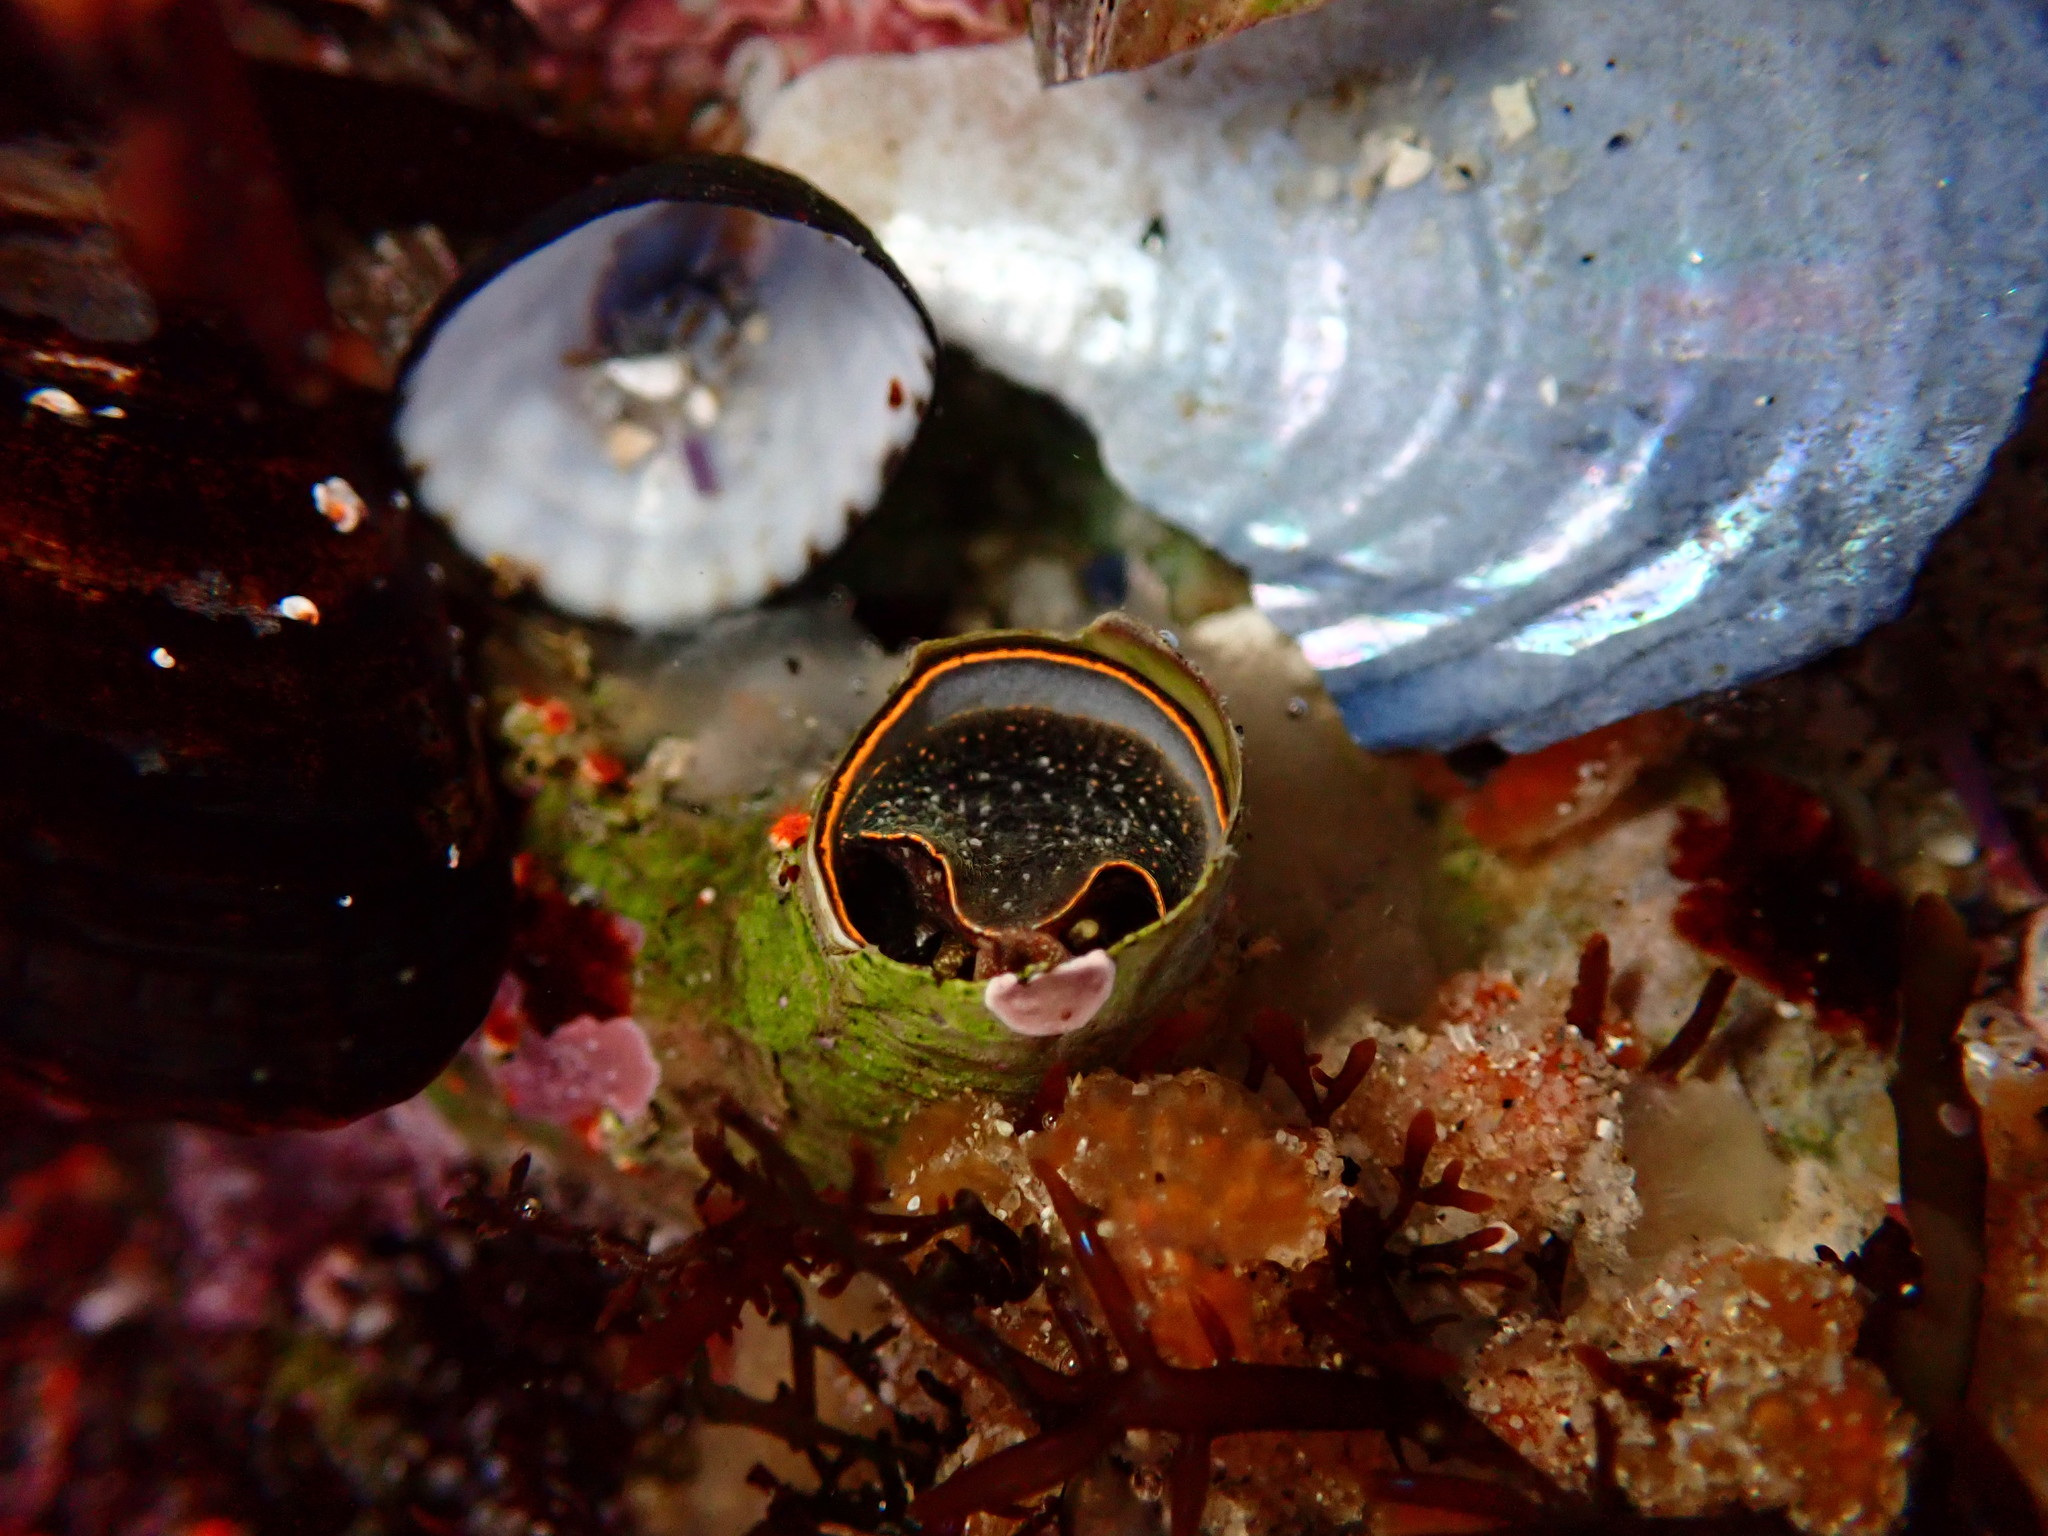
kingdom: Animalia
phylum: Mollusca
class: Gastropoda
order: Littorinimorpha
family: Vermetidae
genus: Thylacodes
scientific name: Thylacodes squamigerus
